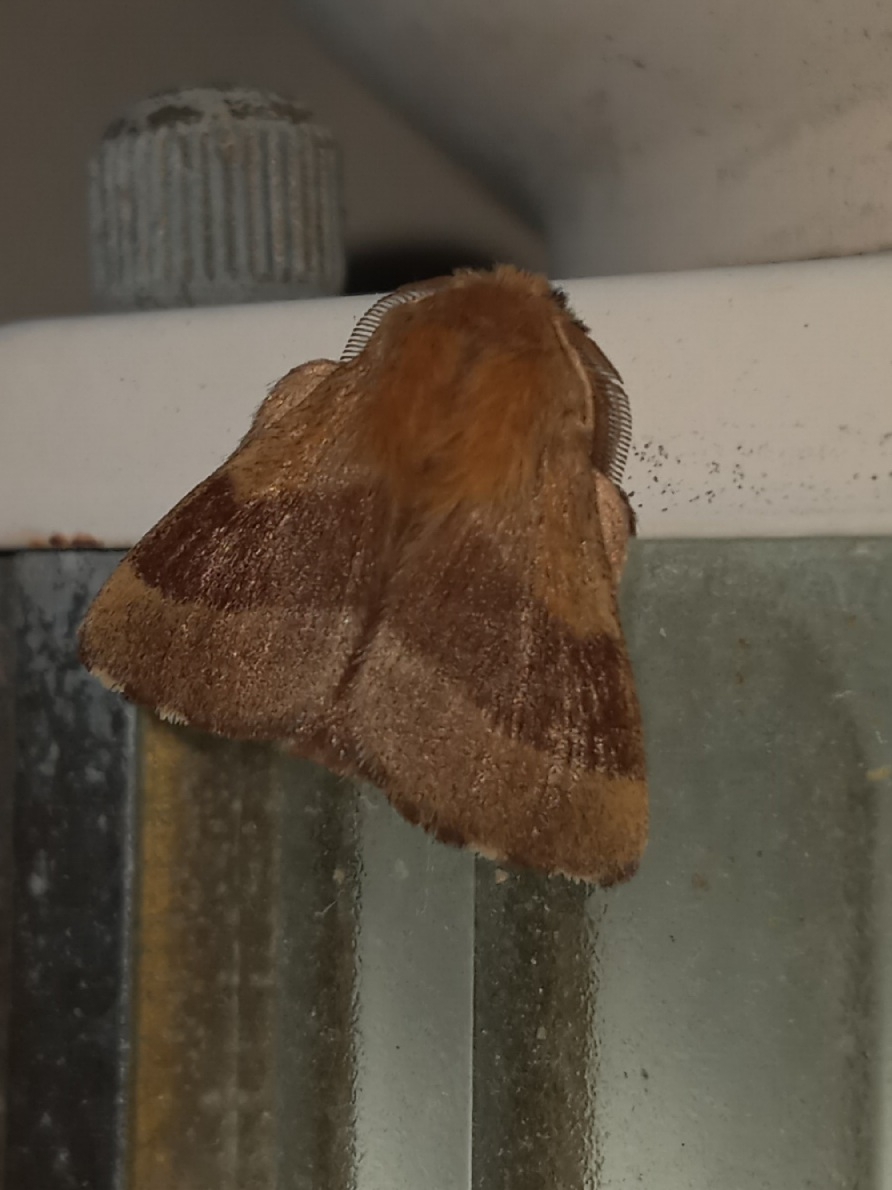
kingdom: Animalia
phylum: Arthropoda
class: Insecta
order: Lepidoptera
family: Lasiocampidae
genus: Malacosoma
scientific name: Malacosoma disstria
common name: Forest tent caterpillar
